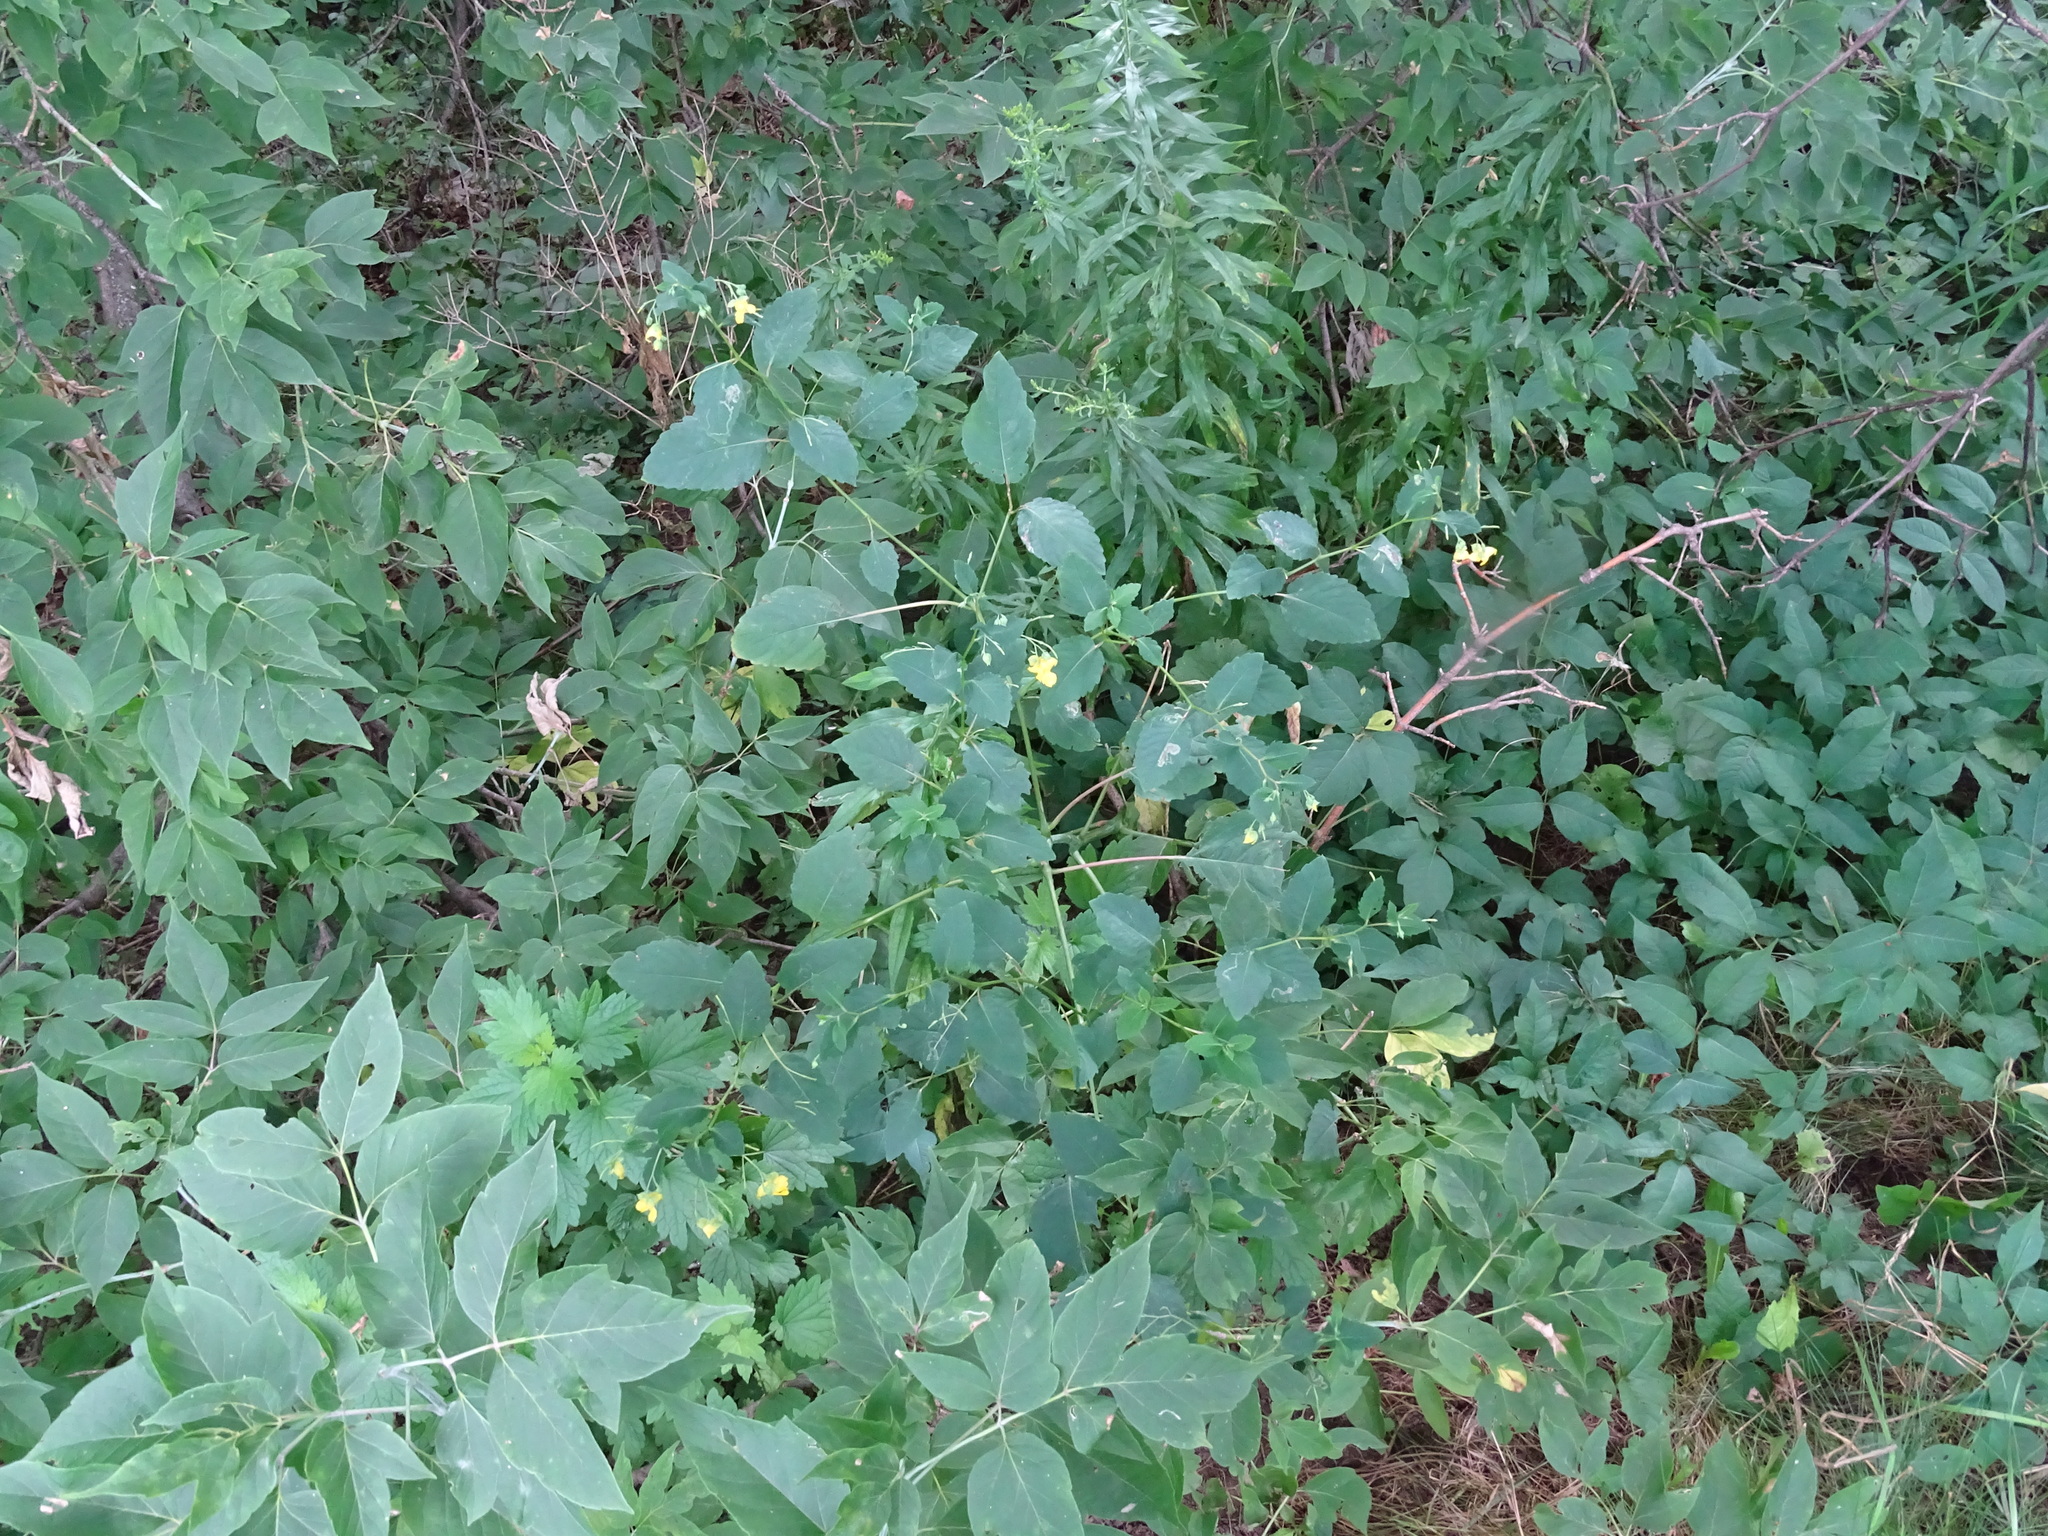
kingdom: Plantae
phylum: Tracheophyta
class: Magnoliopsida
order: Ericales
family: Balsaminaceae
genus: Impatiens
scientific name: Impatiens pallida
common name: Pale snapweed
